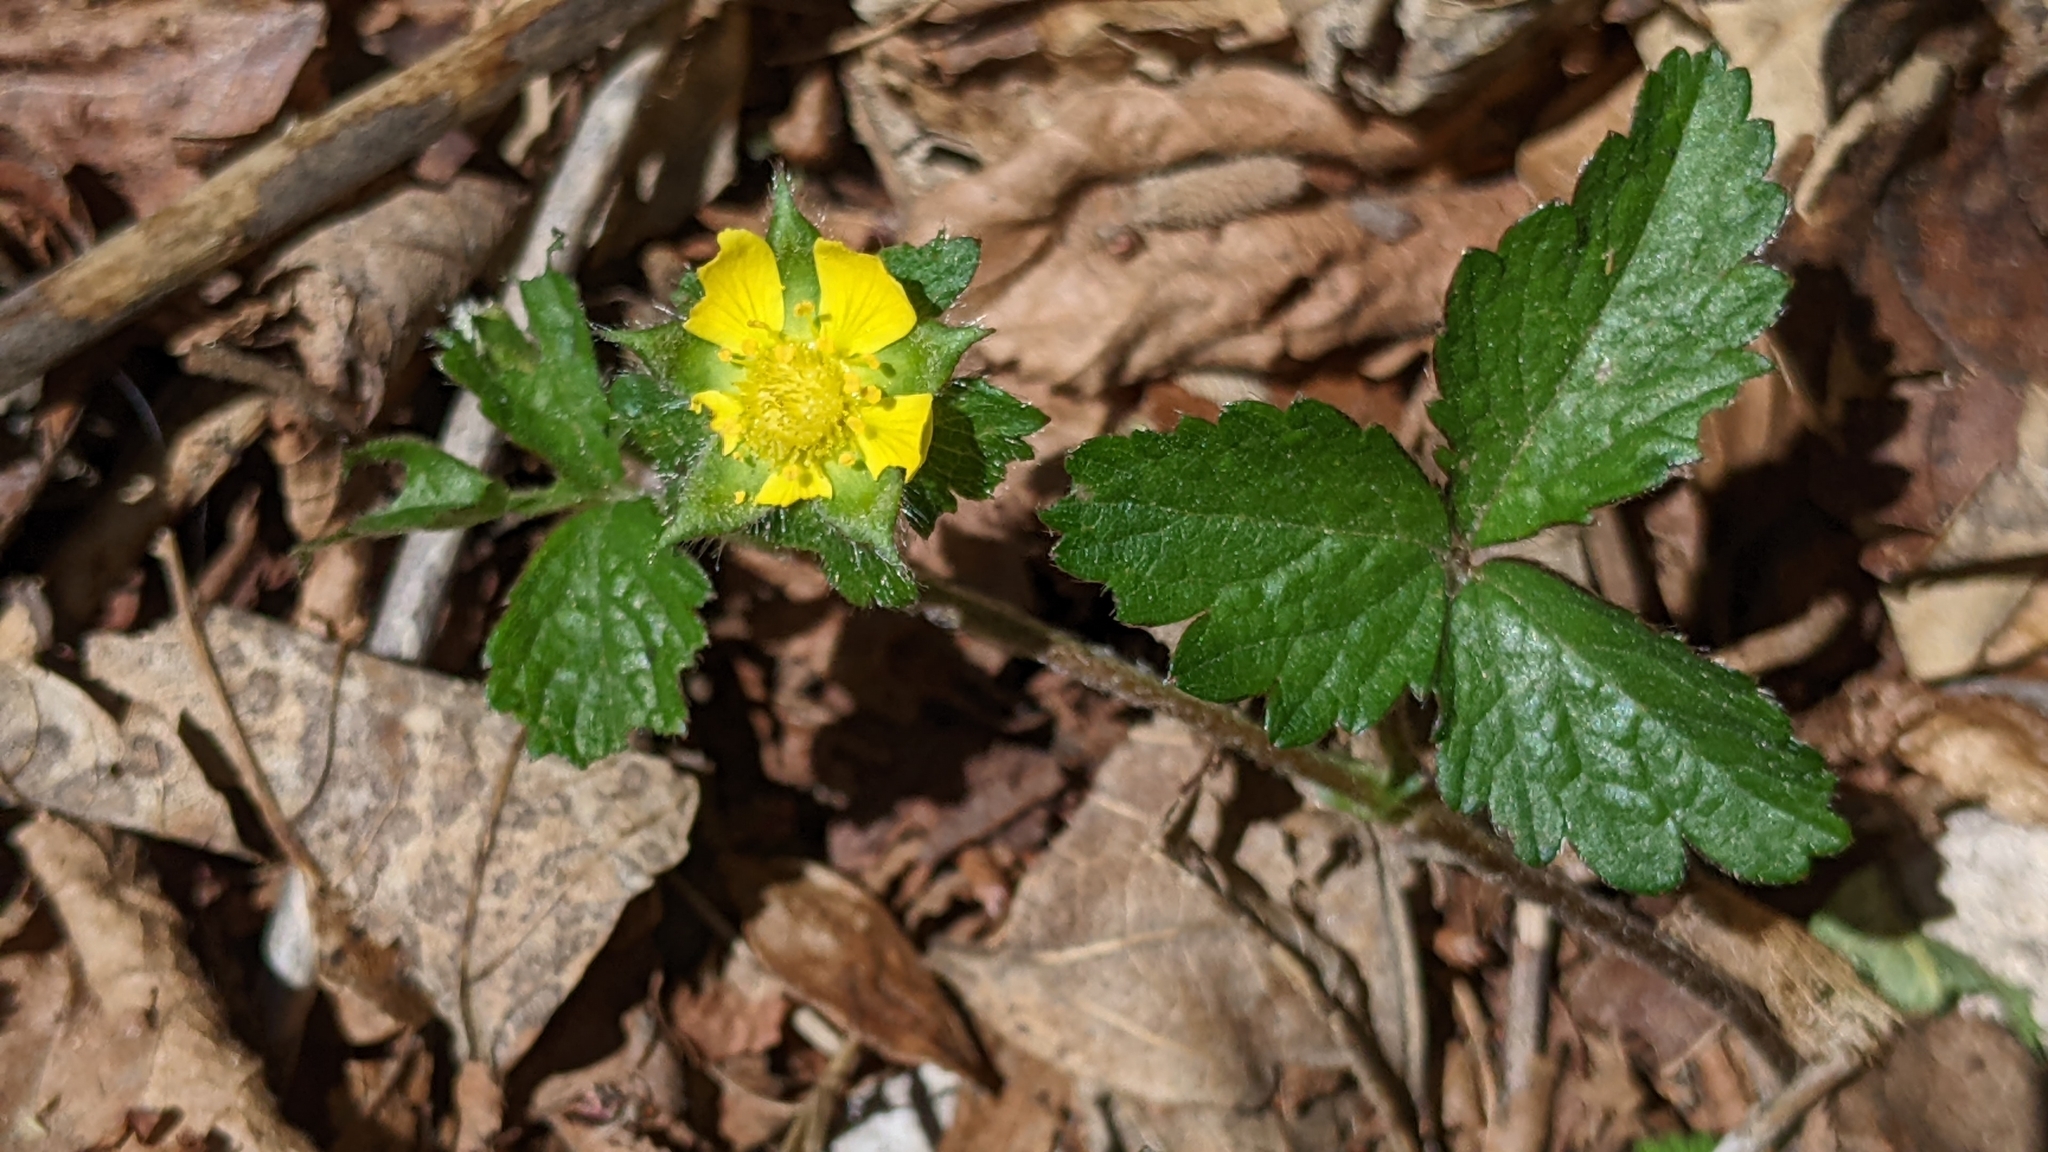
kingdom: Plantae
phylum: Tracheophyta
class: Magnoliopsida
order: Rosales
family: Rosaceae
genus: Potentilla
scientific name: Potentilla indica
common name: Yellow-flowered strawberry
